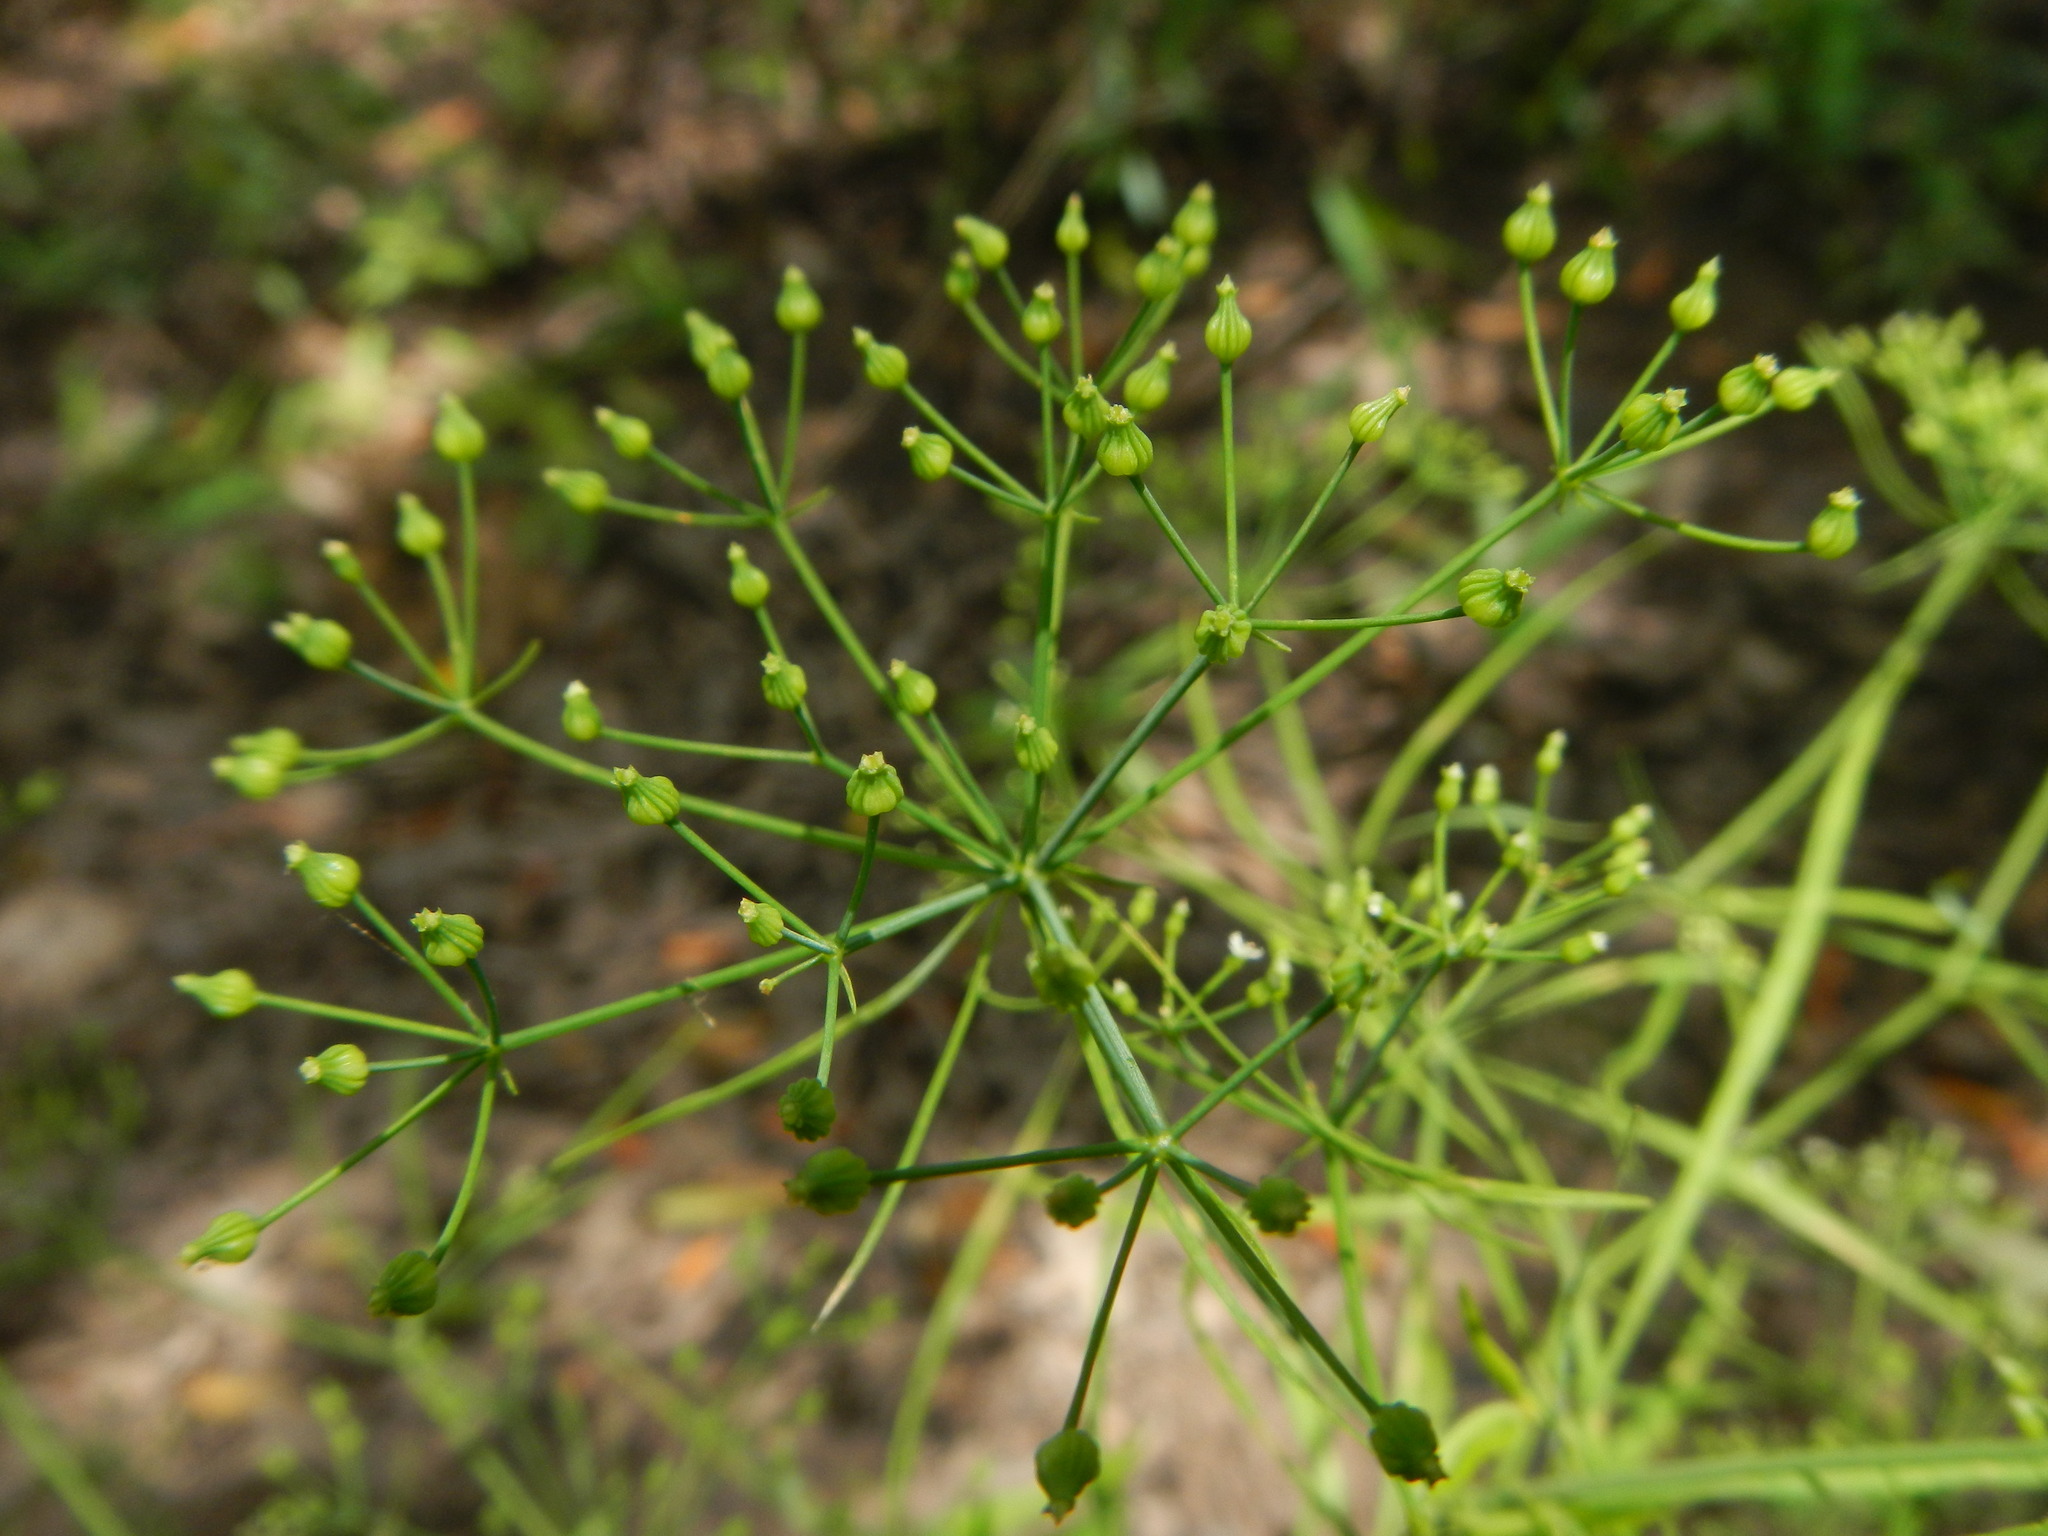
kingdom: Plantae
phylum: Tracheophyta
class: Magnoliopsida
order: Apiales
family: Apiaceae
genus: Cynosciadium
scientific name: Cynosciadium digitatum
